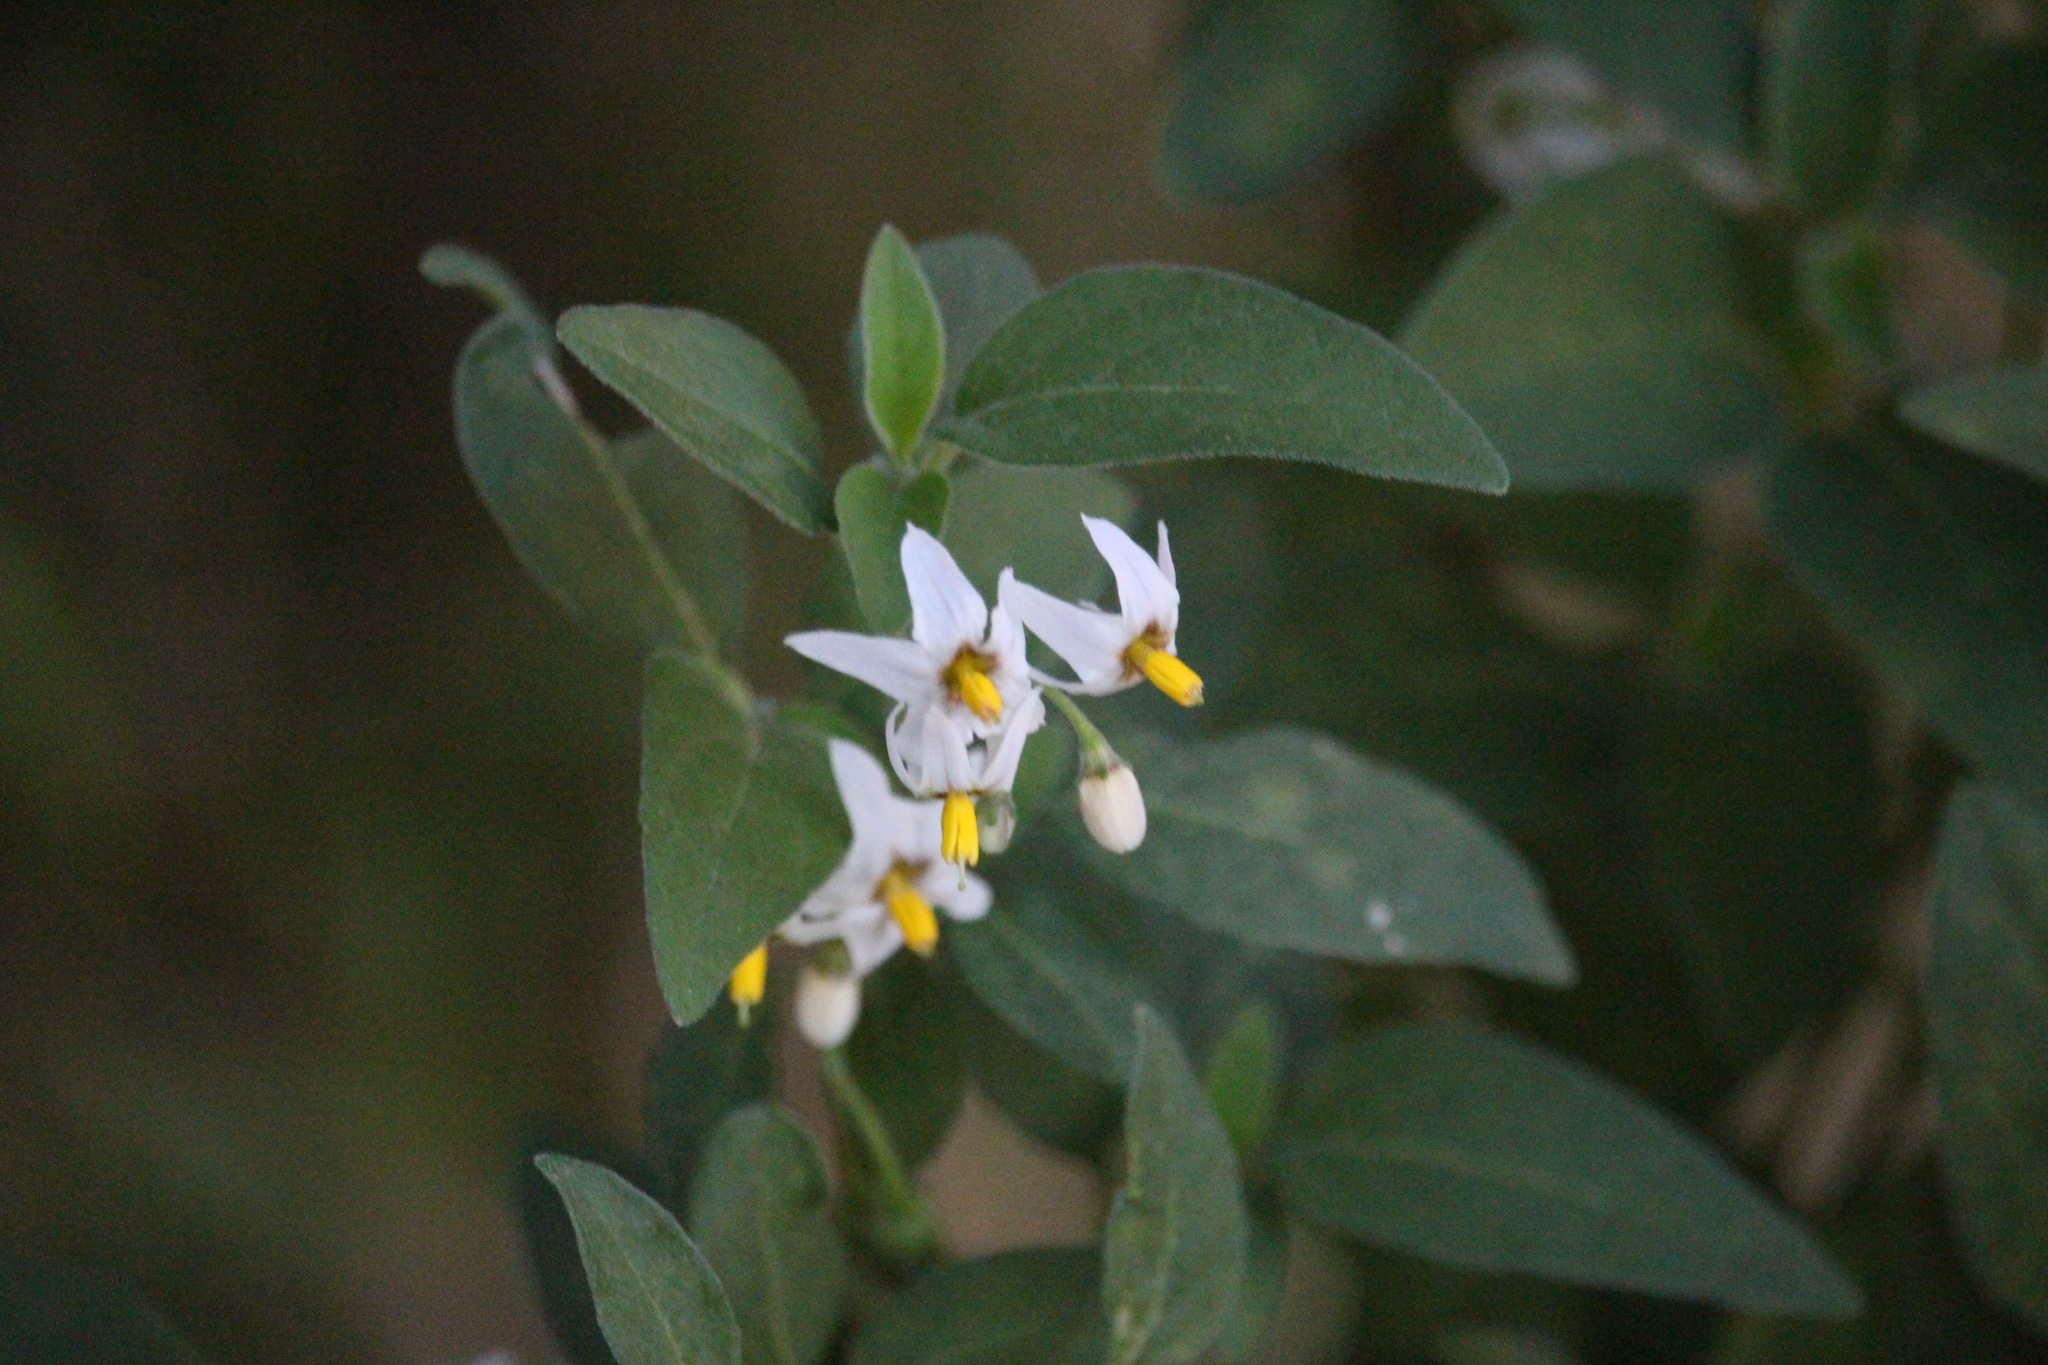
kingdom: Plantae
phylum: Tracheophyta
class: Magnoliopsida
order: Solanales
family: Solanaceae
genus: Solanum
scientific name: Solanum chenopodioides
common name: Tall nightshade
